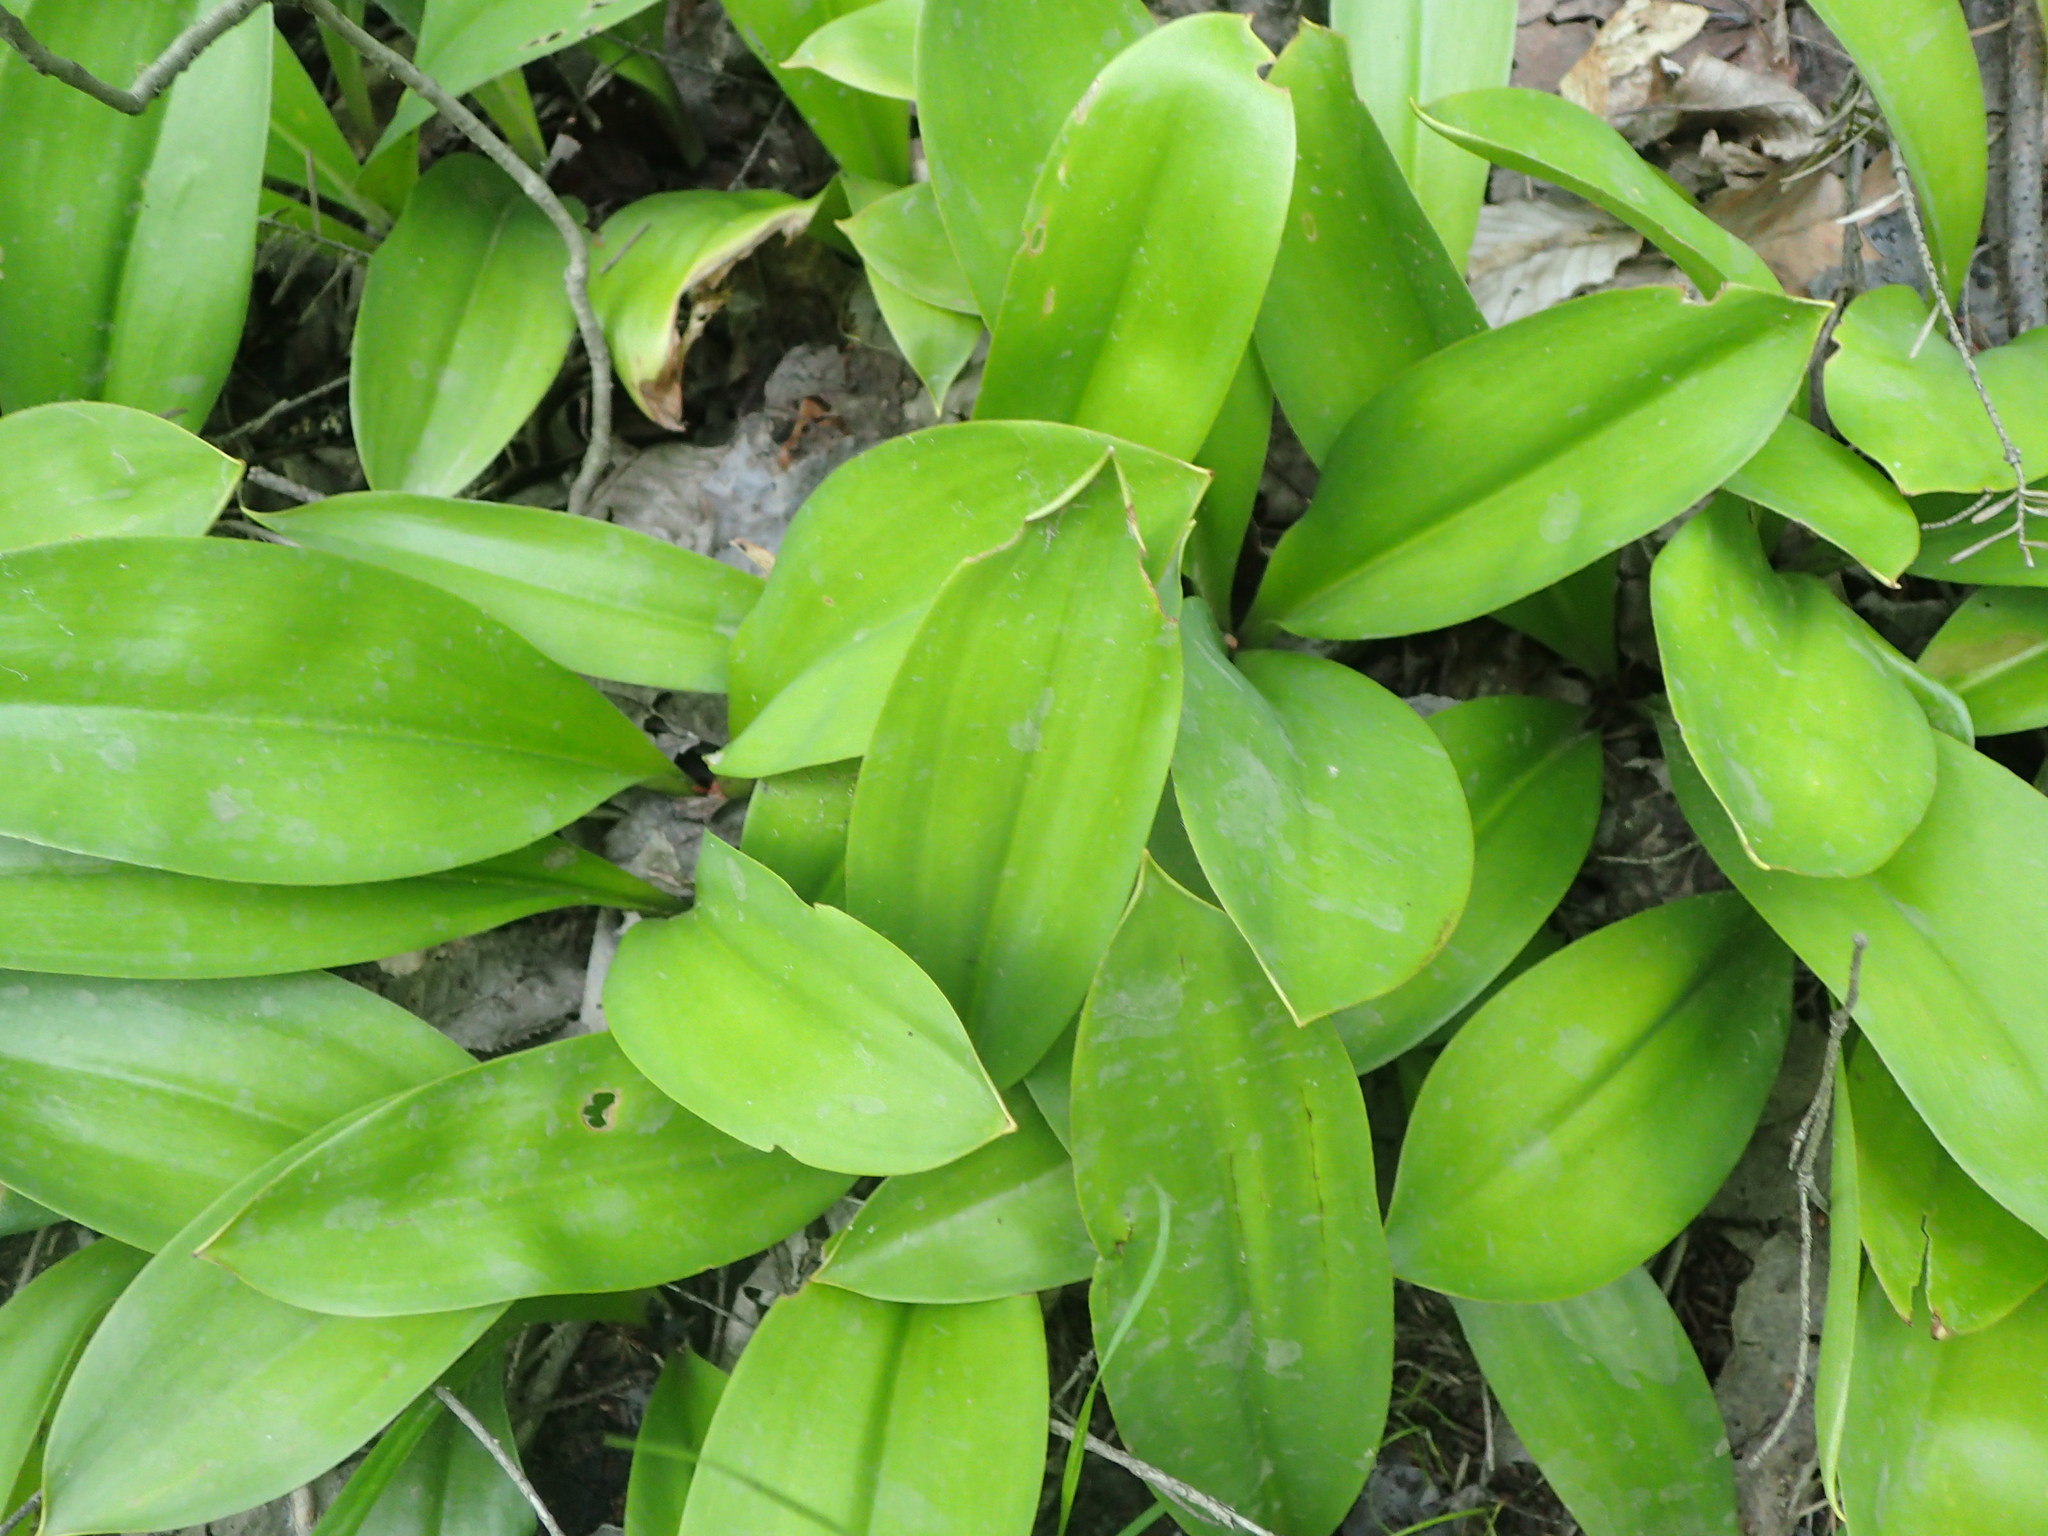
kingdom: Plantae
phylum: Tracheophyta
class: Liliopsida
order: Liliales
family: Liliaceae
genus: Clintonia
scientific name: Clintonia borealis
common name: Yellow clintonia
